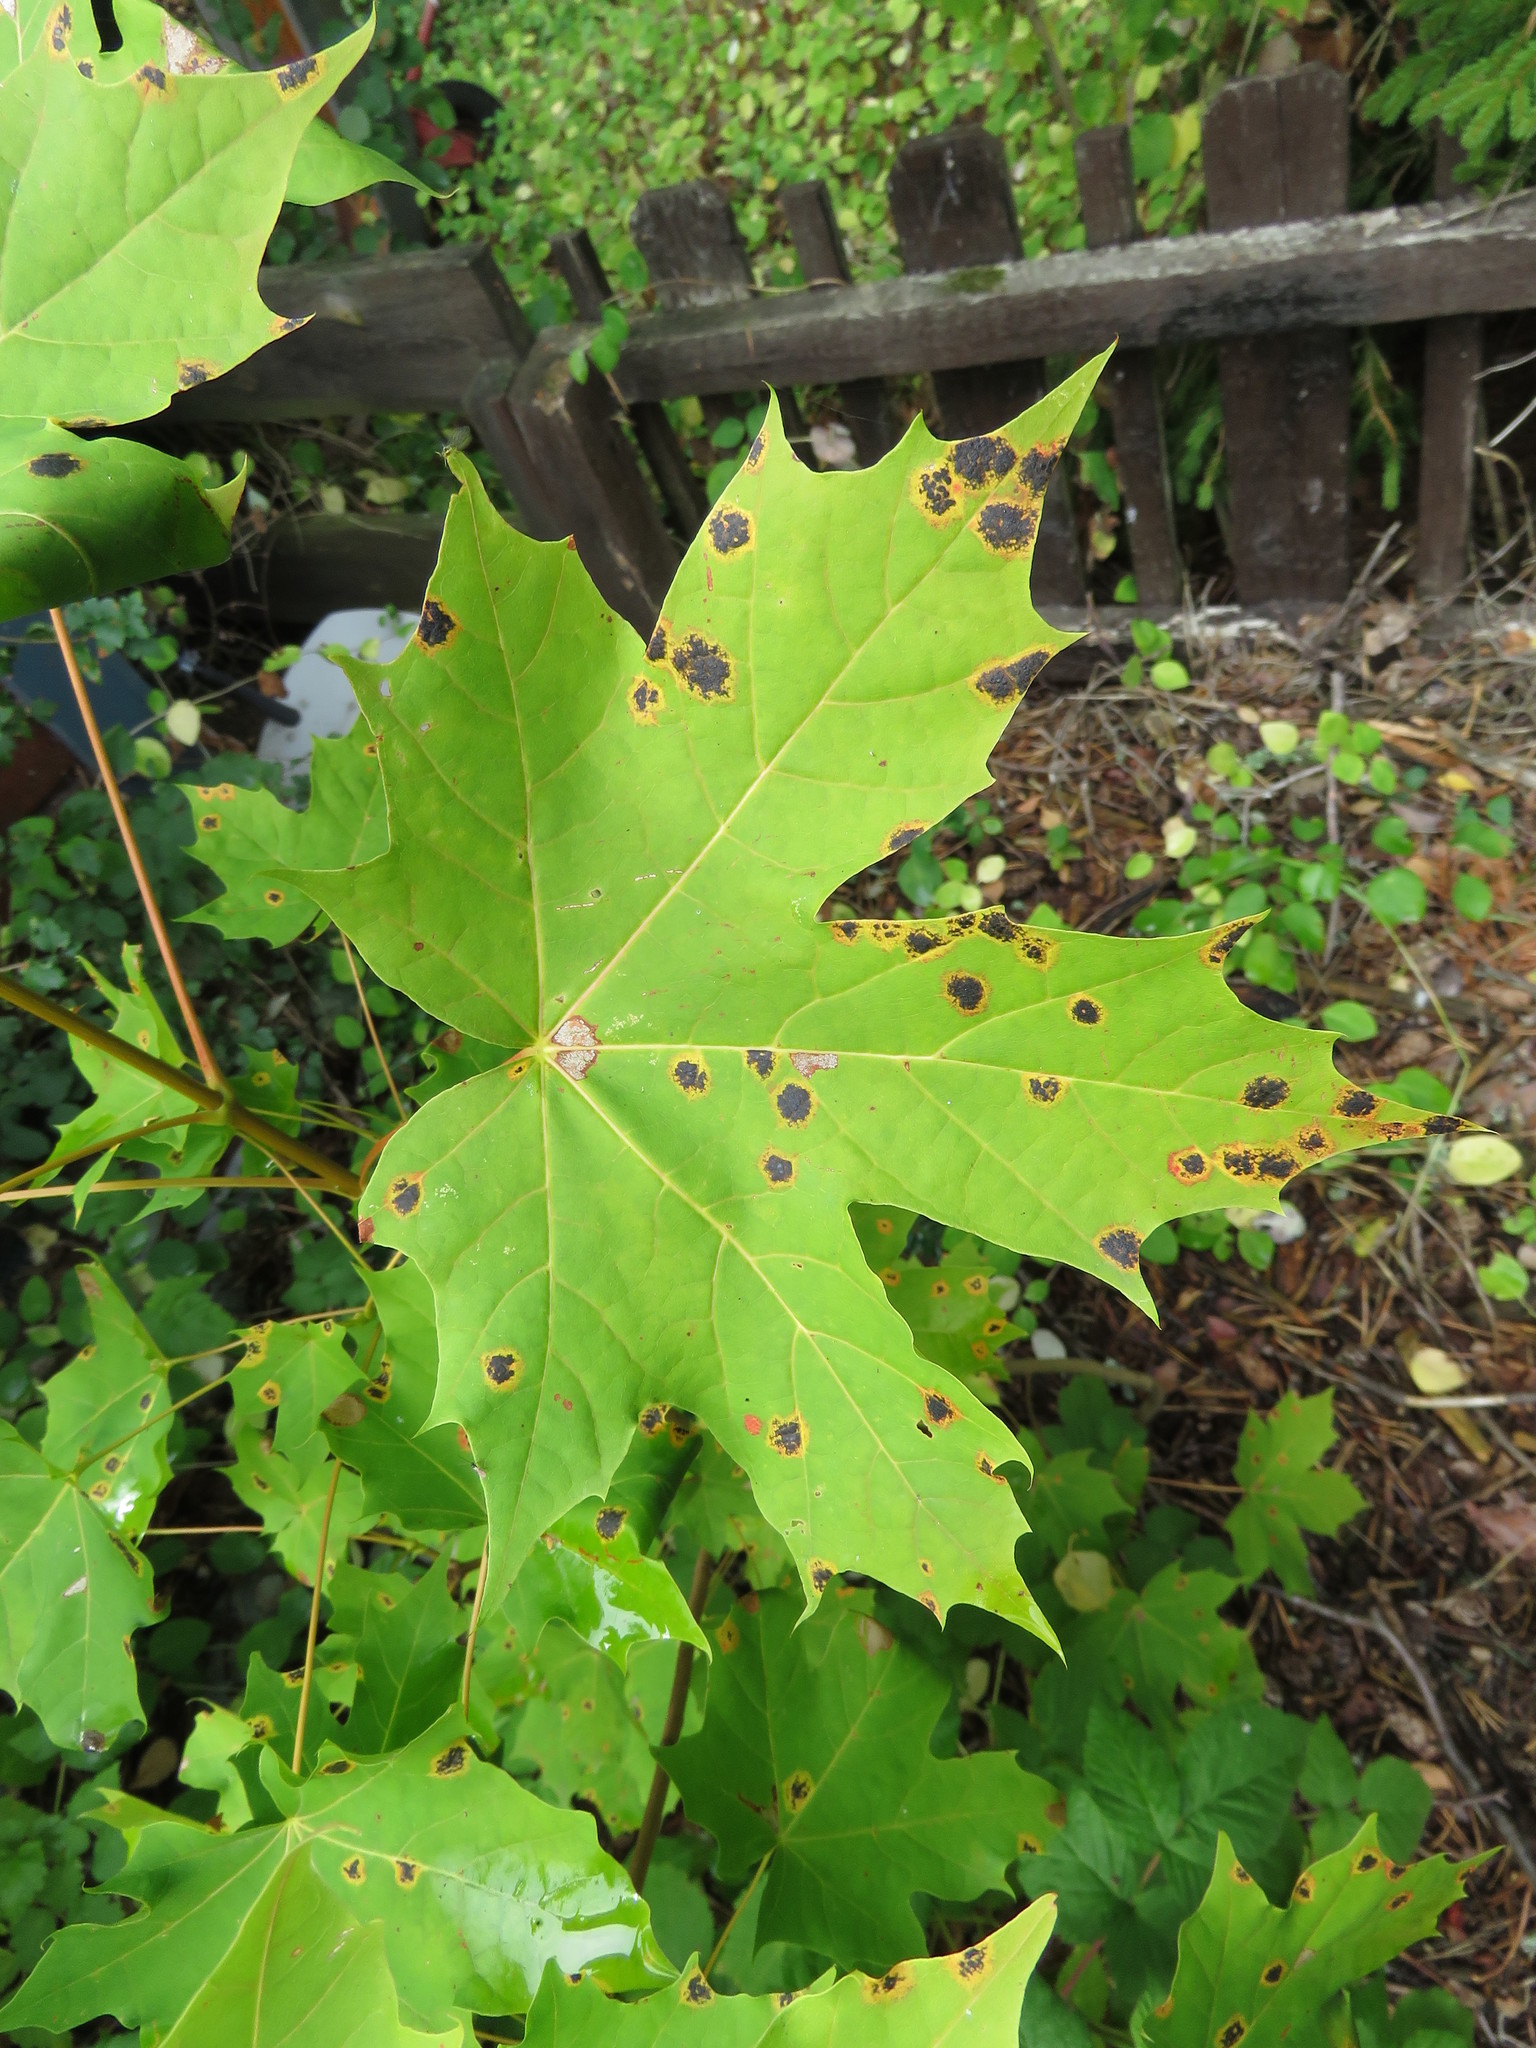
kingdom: Plantae
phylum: Tracheophyta
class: Magnoliopsida
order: Sapindales
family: Sapindaceae
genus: Acer
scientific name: Acer platanoides
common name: Norway maple
